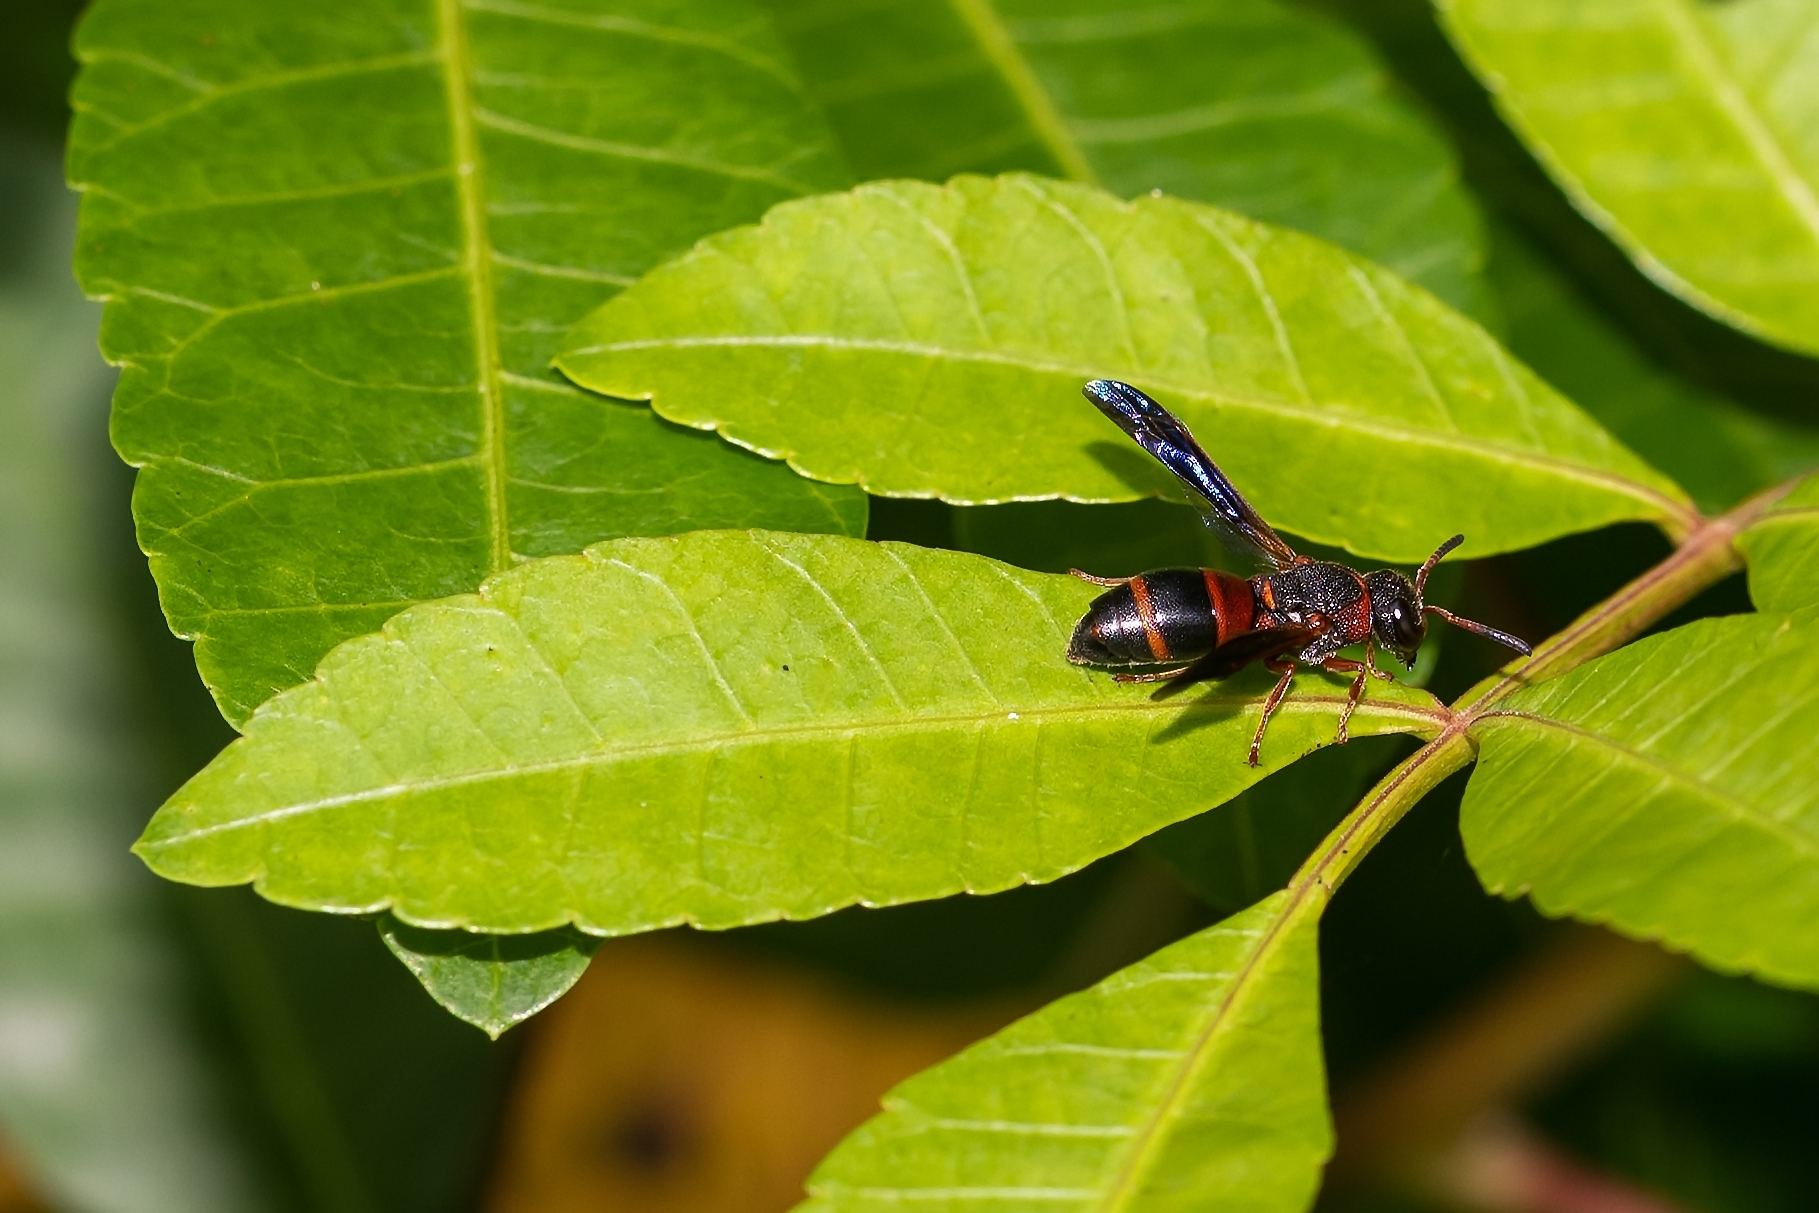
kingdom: Animalia
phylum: Arthropoda
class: Insecta
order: Hymenoptera
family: Eumenidae
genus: Pachodynerus
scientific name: Pachodynerus erynnis
